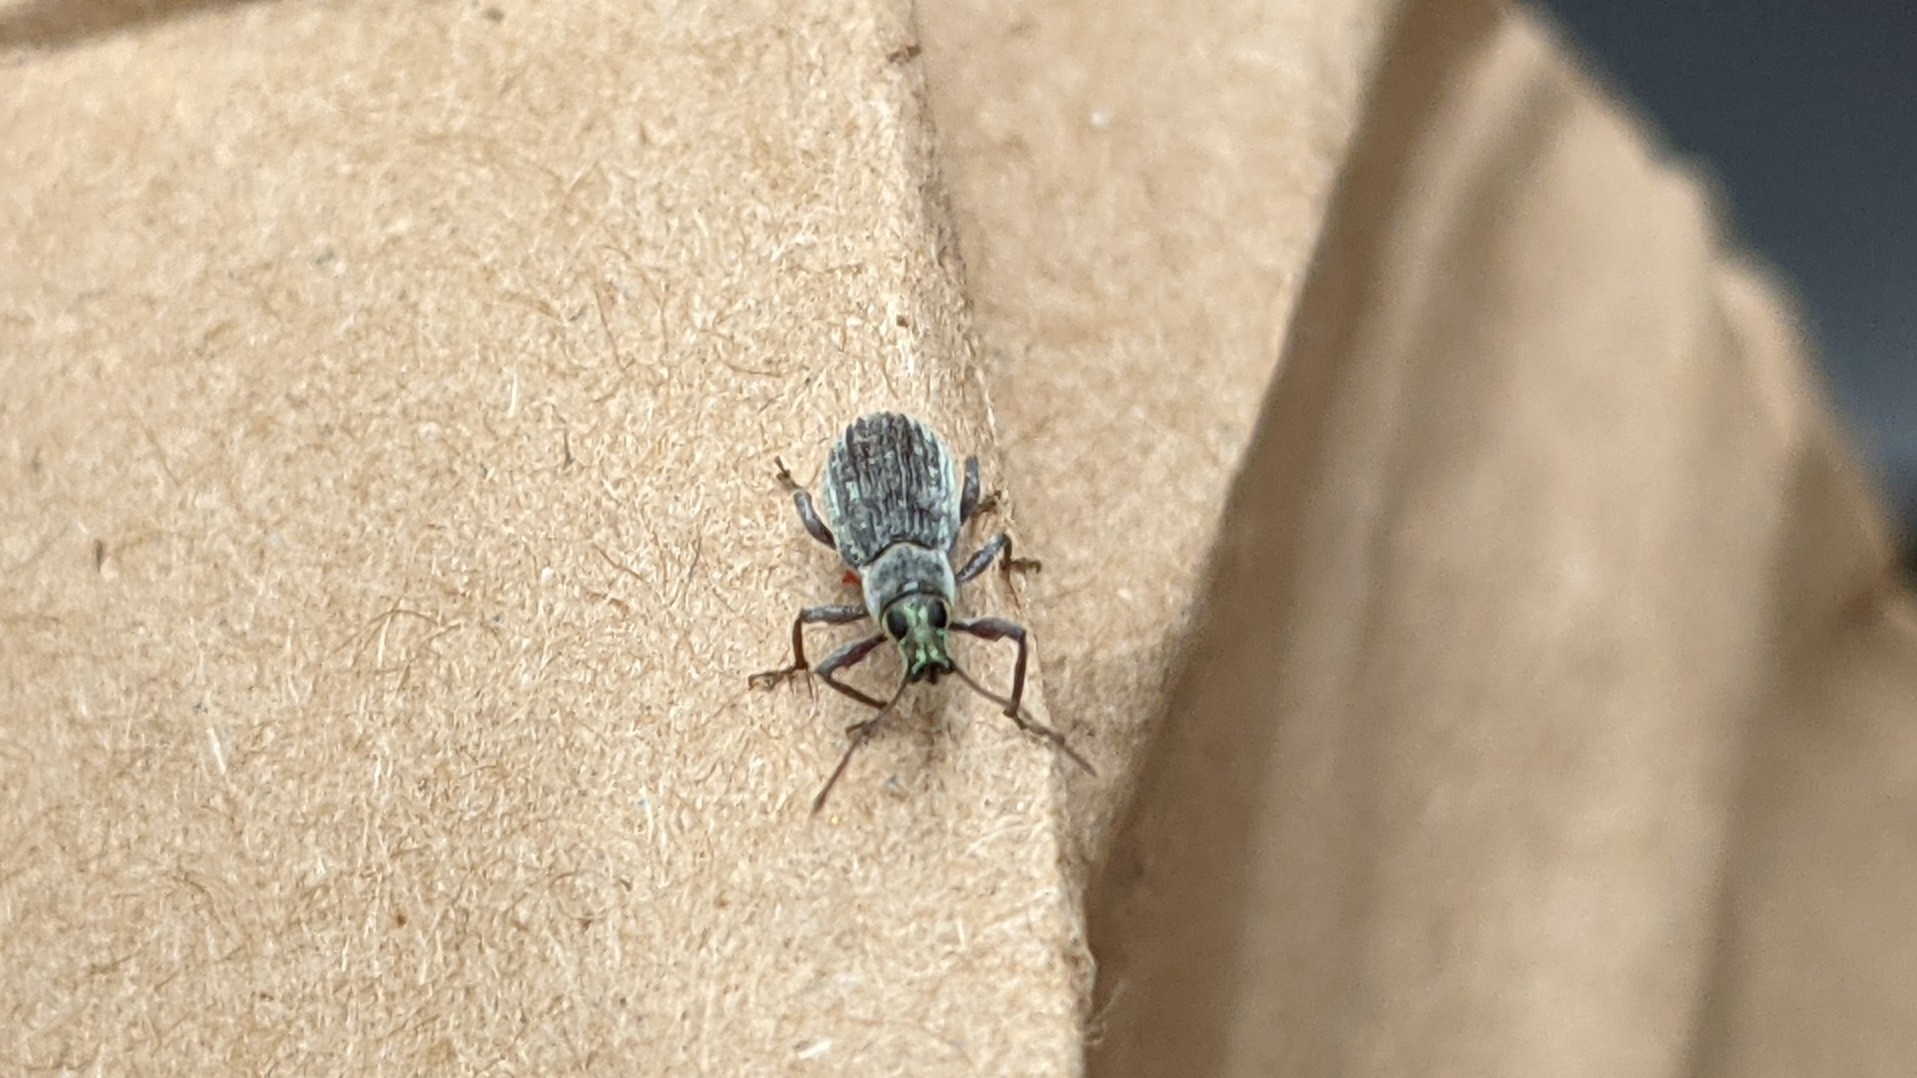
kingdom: Animalia
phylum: Arthropoda
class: Insecta
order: Coleoptera
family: Curculionidae
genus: Cyrtepistomus
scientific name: Cyrtepistomus castaneus
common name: Weevil
